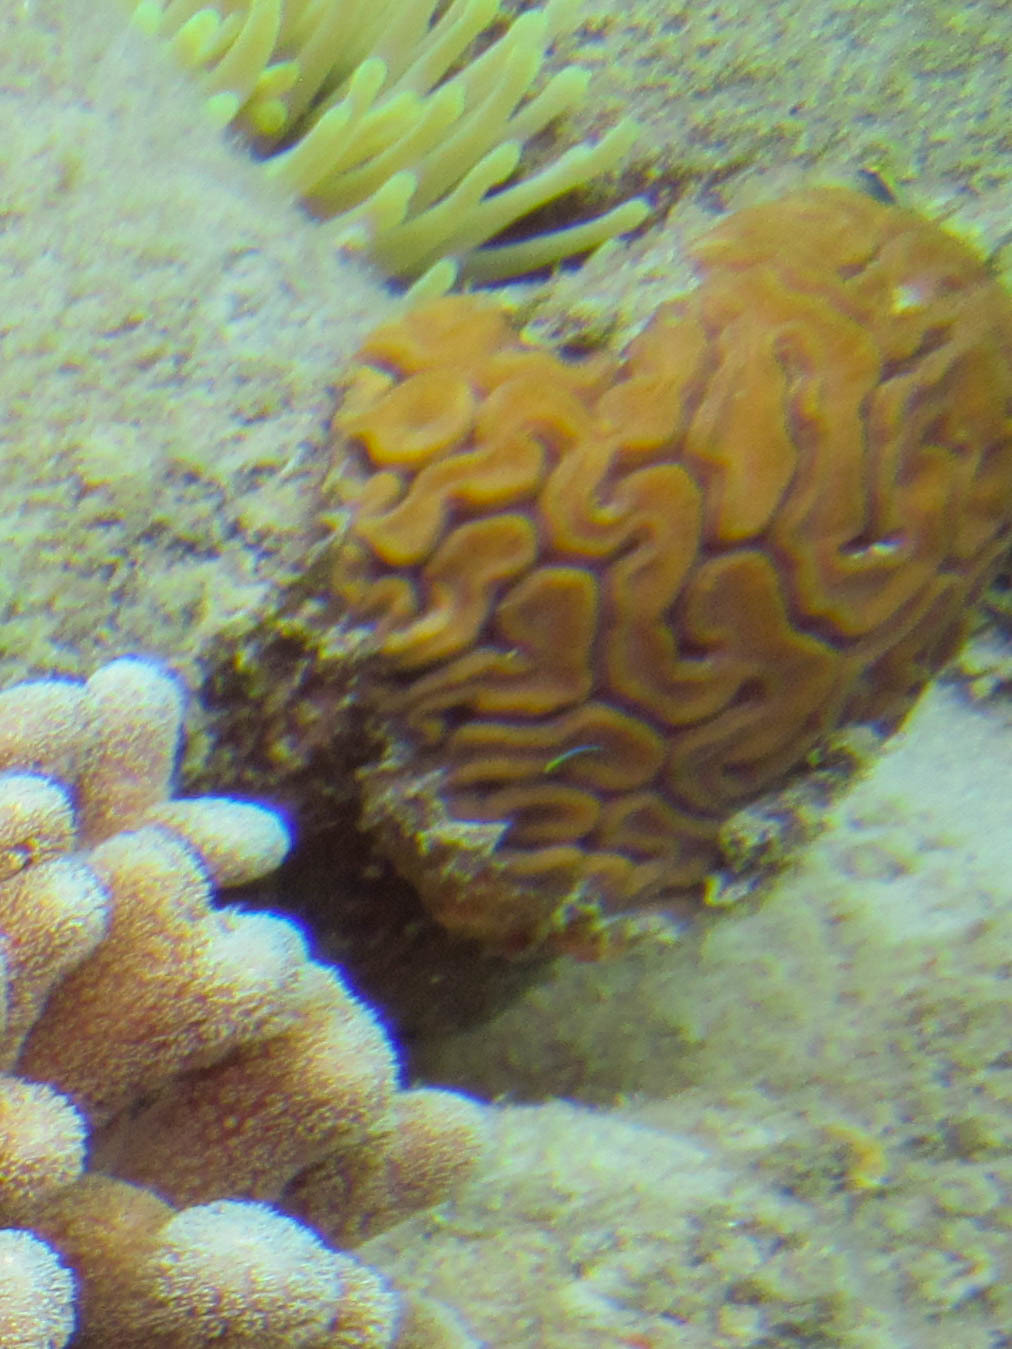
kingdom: Animalia
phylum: Cnidaria
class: Anthozoa
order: Scleractinia
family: Faviidae
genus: Diploria
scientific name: Diploria labyrinthiformis
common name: Grooved brain coral
